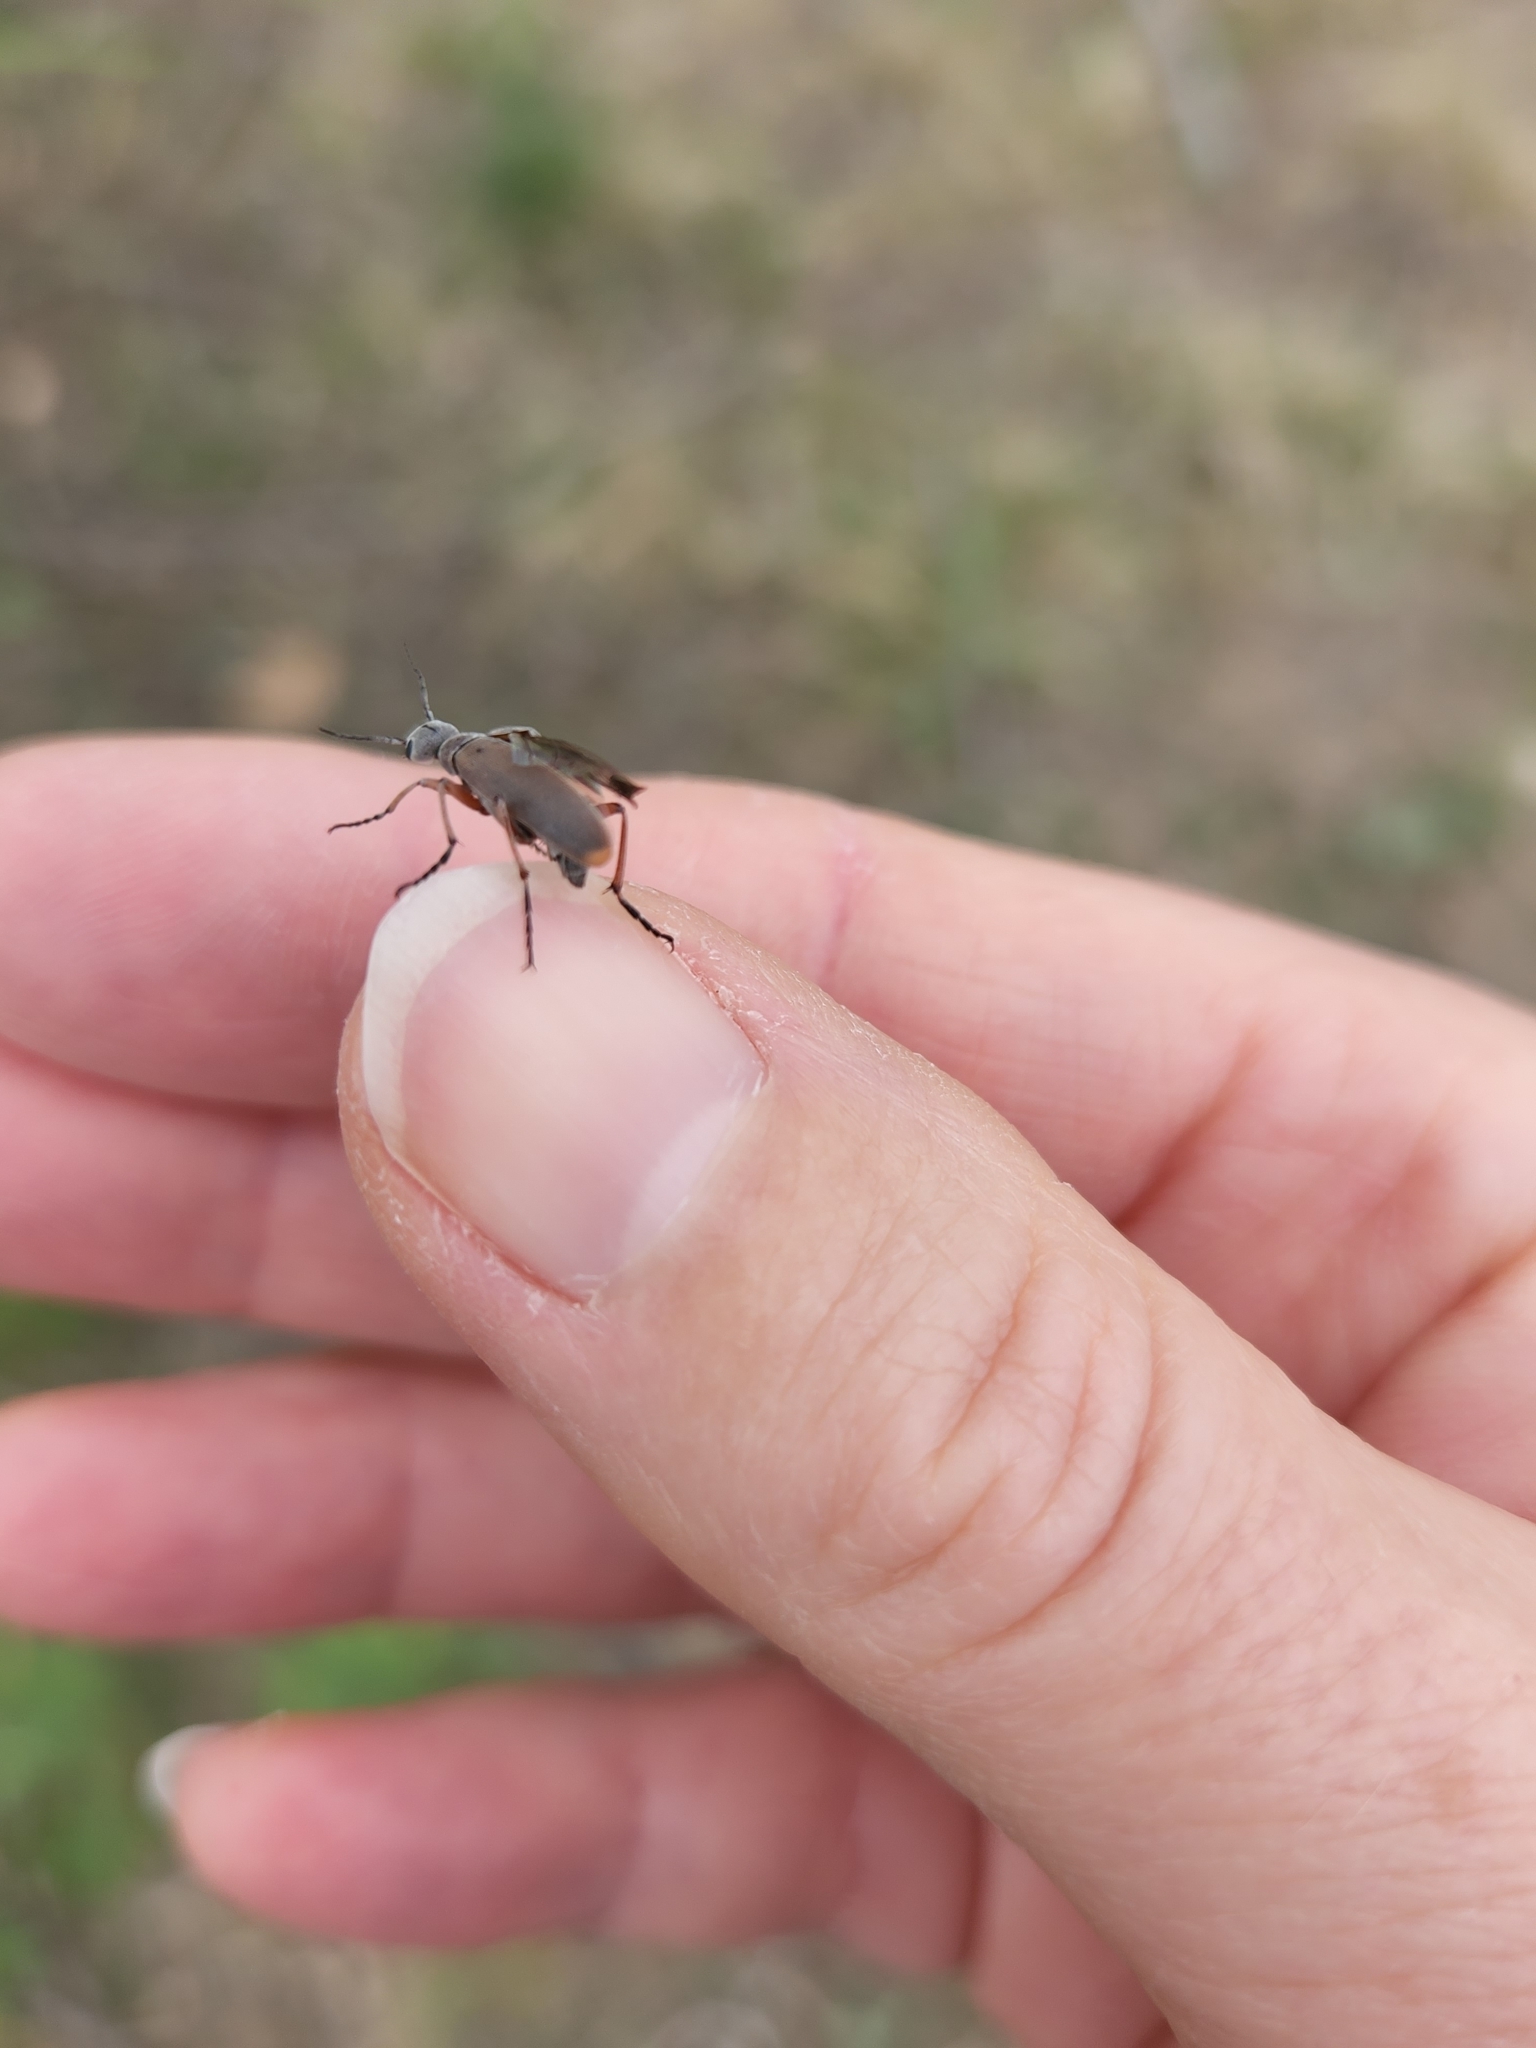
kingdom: Animalia
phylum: Arthropoda
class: Insecta
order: Coleoptera
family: Meloidae
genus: Epicauta
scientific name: Epicauta nigritarsis
